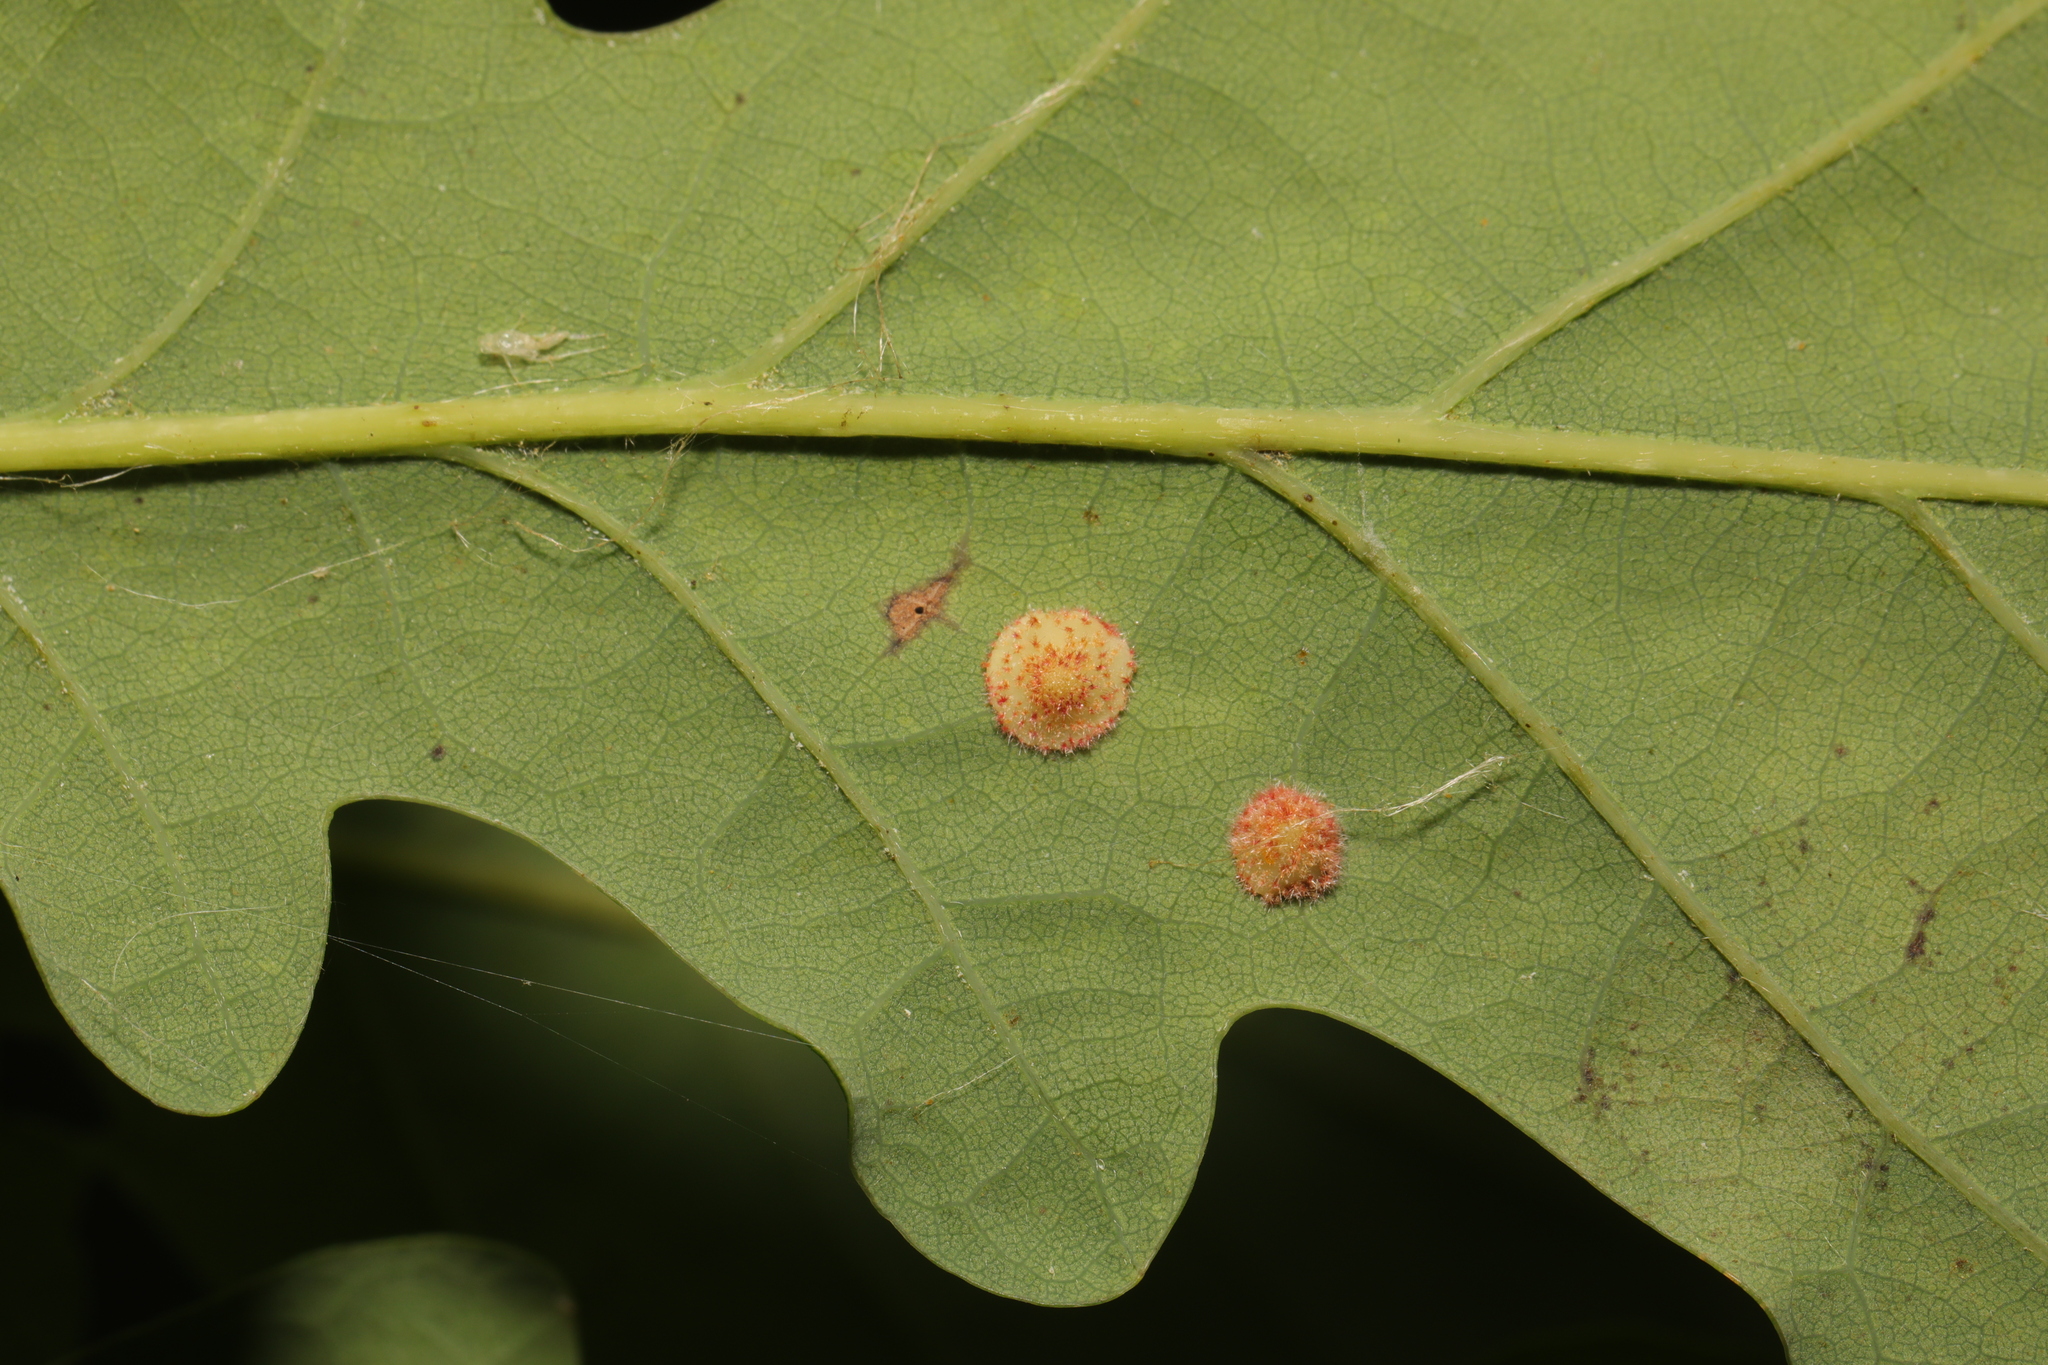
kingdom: Animalia
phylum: Arthropoda
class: Insecta
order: Hymenoptera
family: Cynipidae
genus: Neuroterus
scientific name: Neuroterus quercusbaccarum
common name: Common spangle gall
